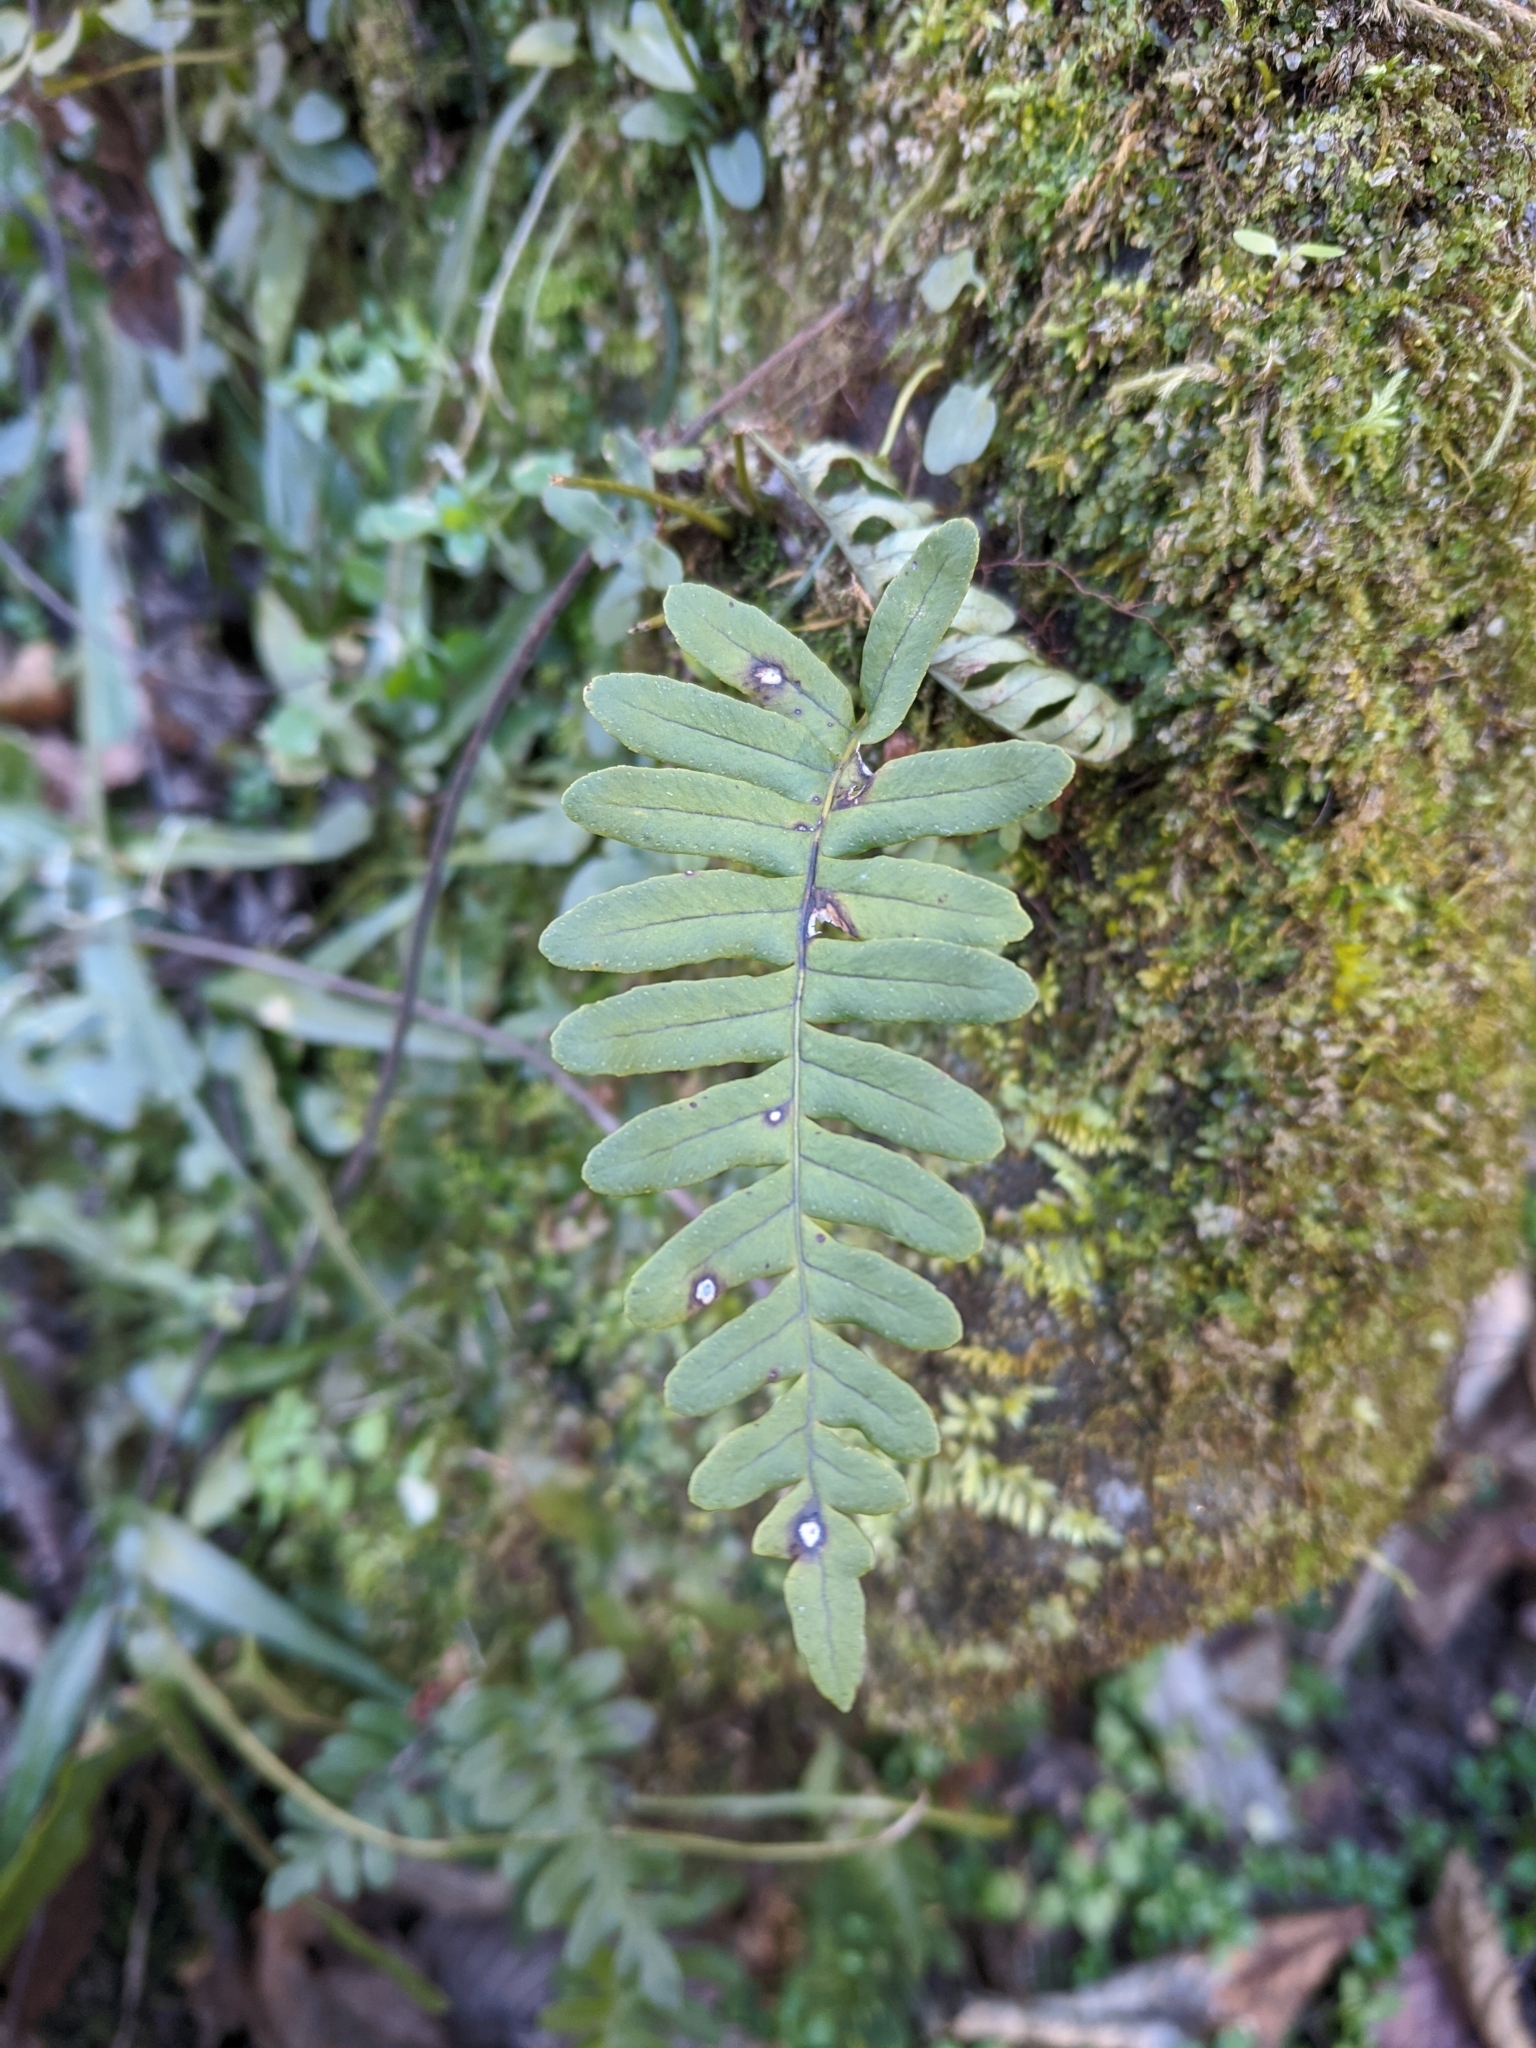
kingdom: Plantae
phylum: Tracheophyta
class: Polypodiopsida
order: Polypodiales
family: Polypodiaceae
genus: Polypodium
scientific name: Polypodium virginianum
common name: American wall fern
